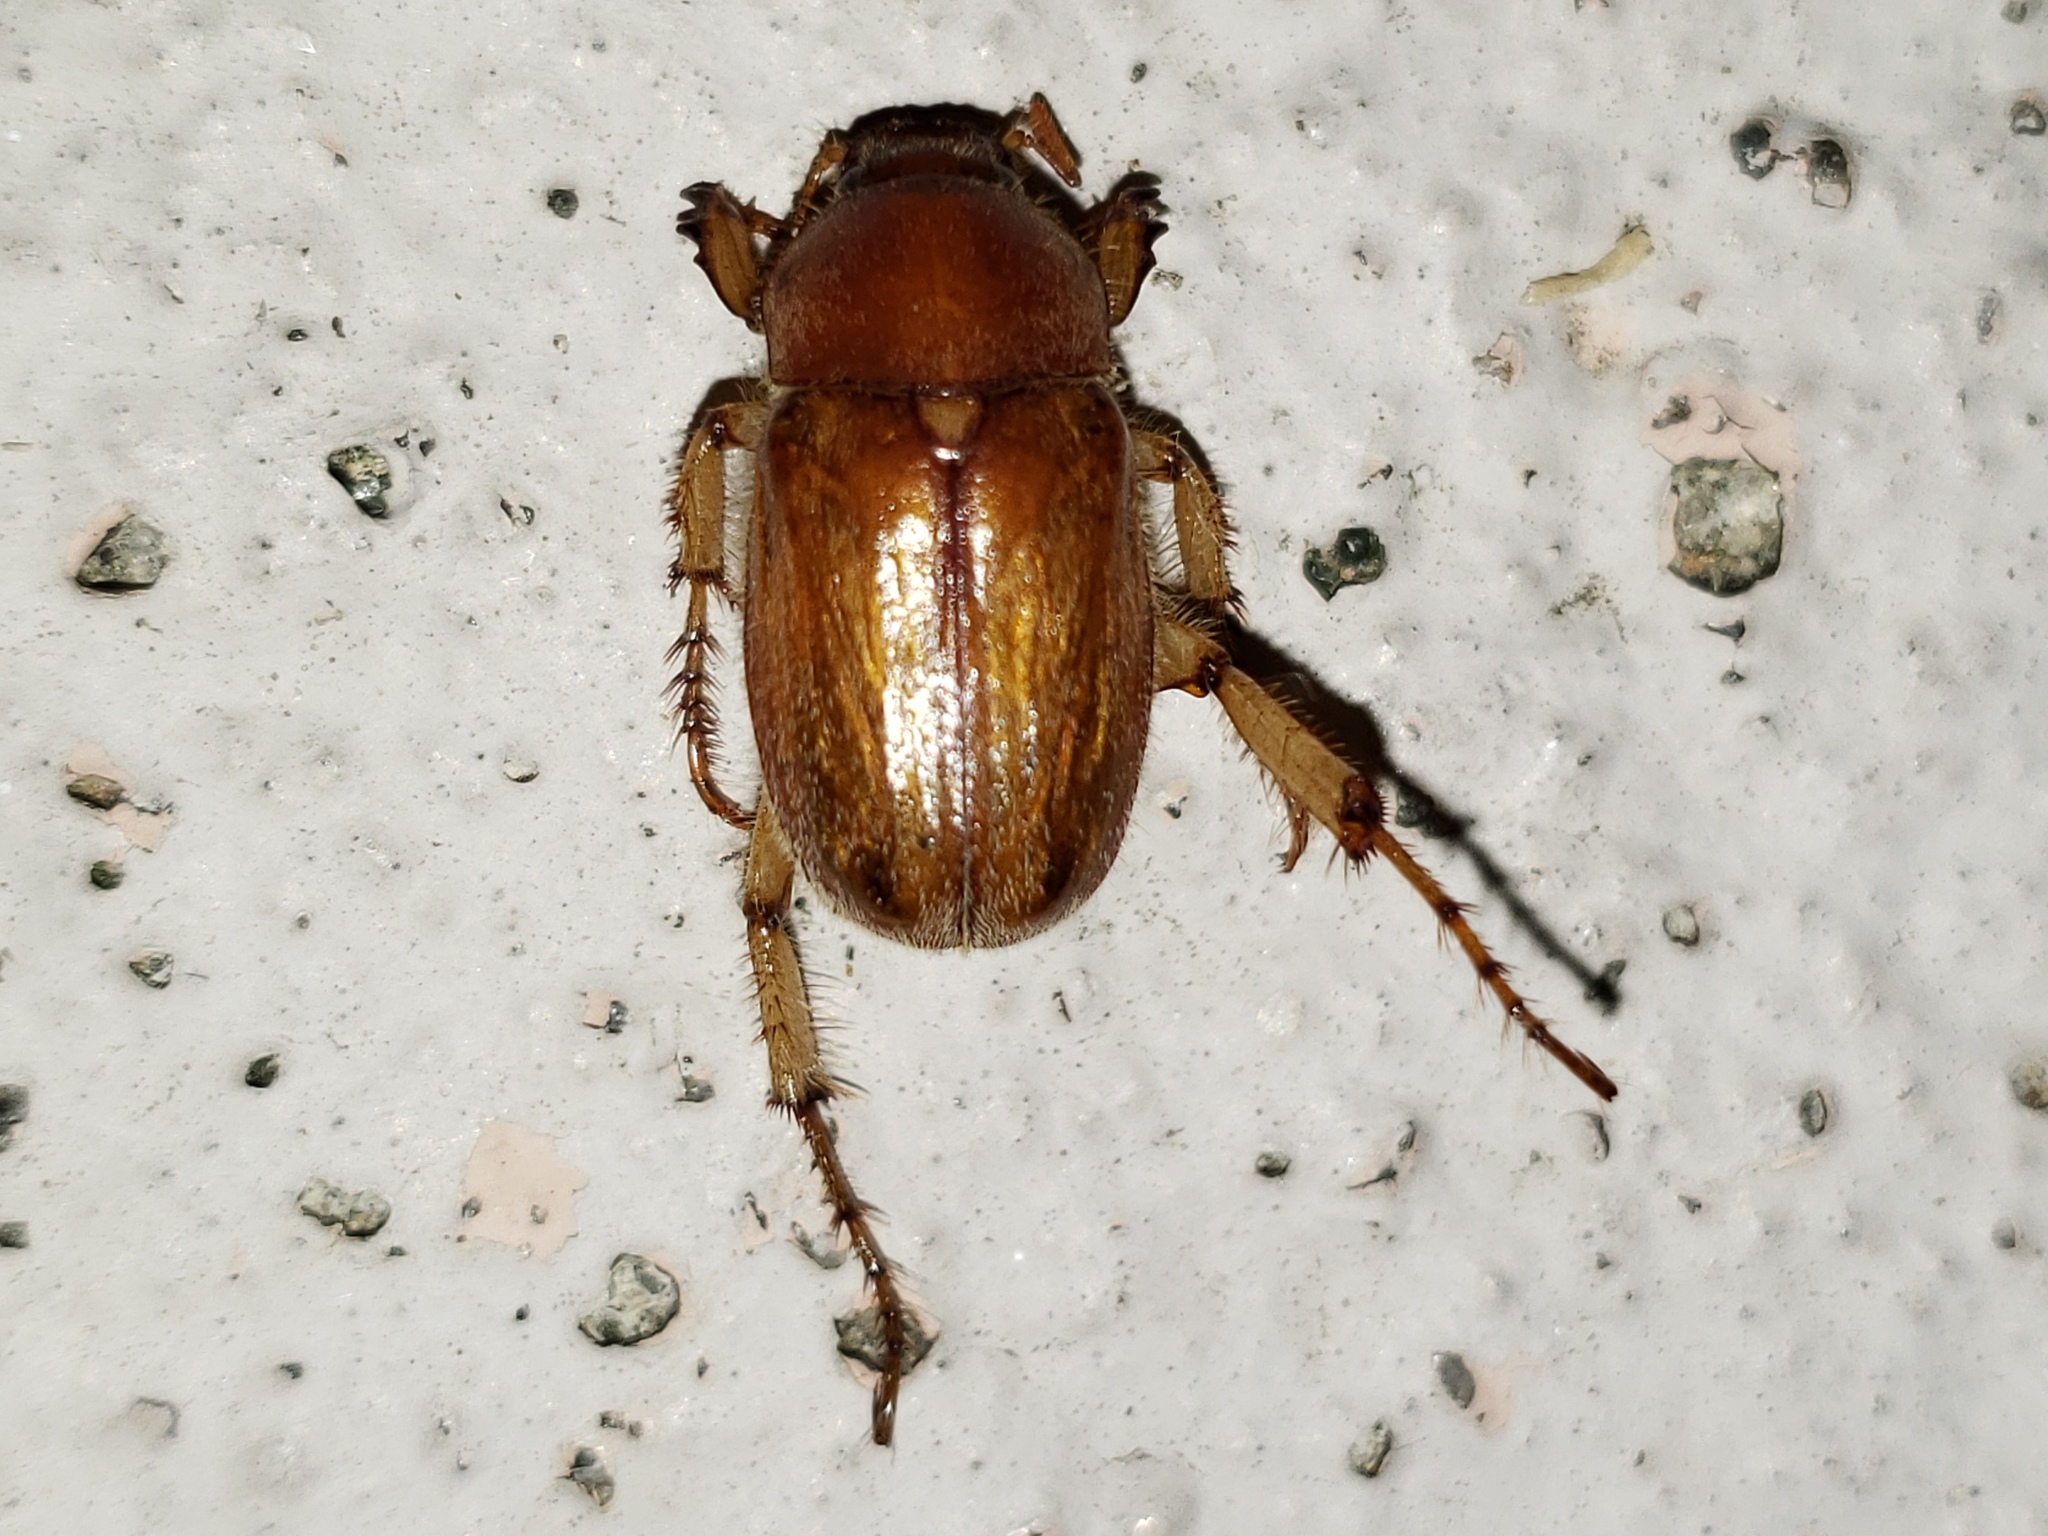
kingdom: Animalia
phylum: Arthropoda
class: Insecta
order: Coleoptera
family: Scarabaeidae
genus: Plectris
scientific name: Plectris aliena
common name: Scarab beetle
